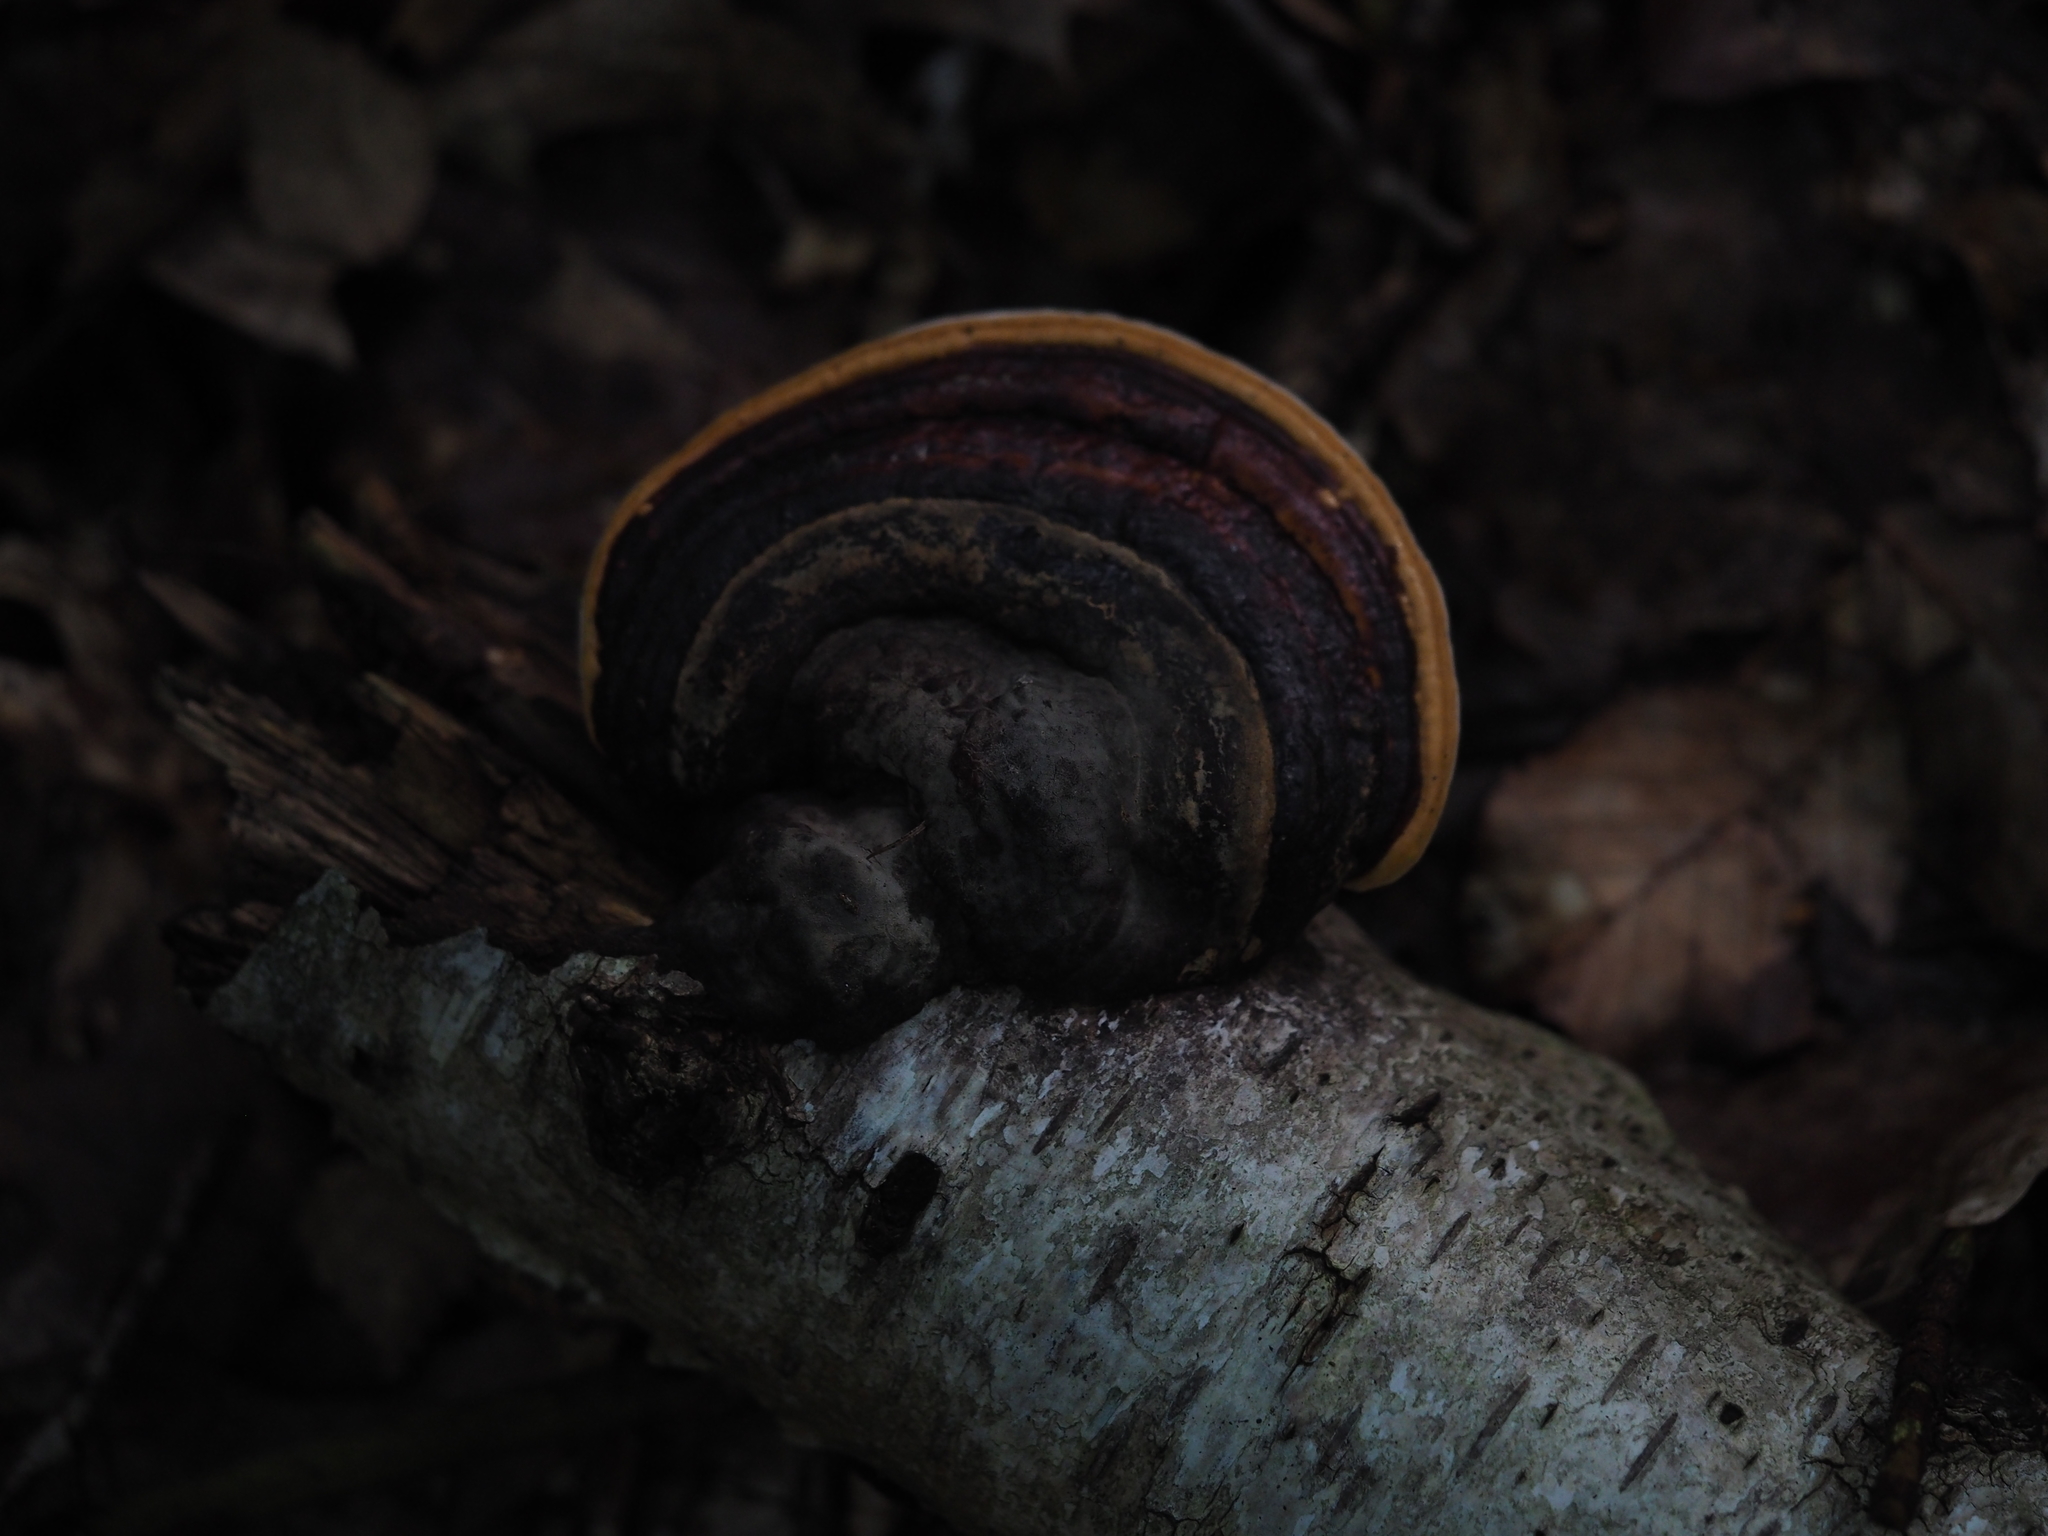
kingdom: Fungi
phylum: Basidiomycota
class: Agaricomycetes
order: Polyporales
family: Fomitopsidaceae
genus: Fomitopsis
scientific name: Fomitopsis pinicola
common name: Red-belted bracket
